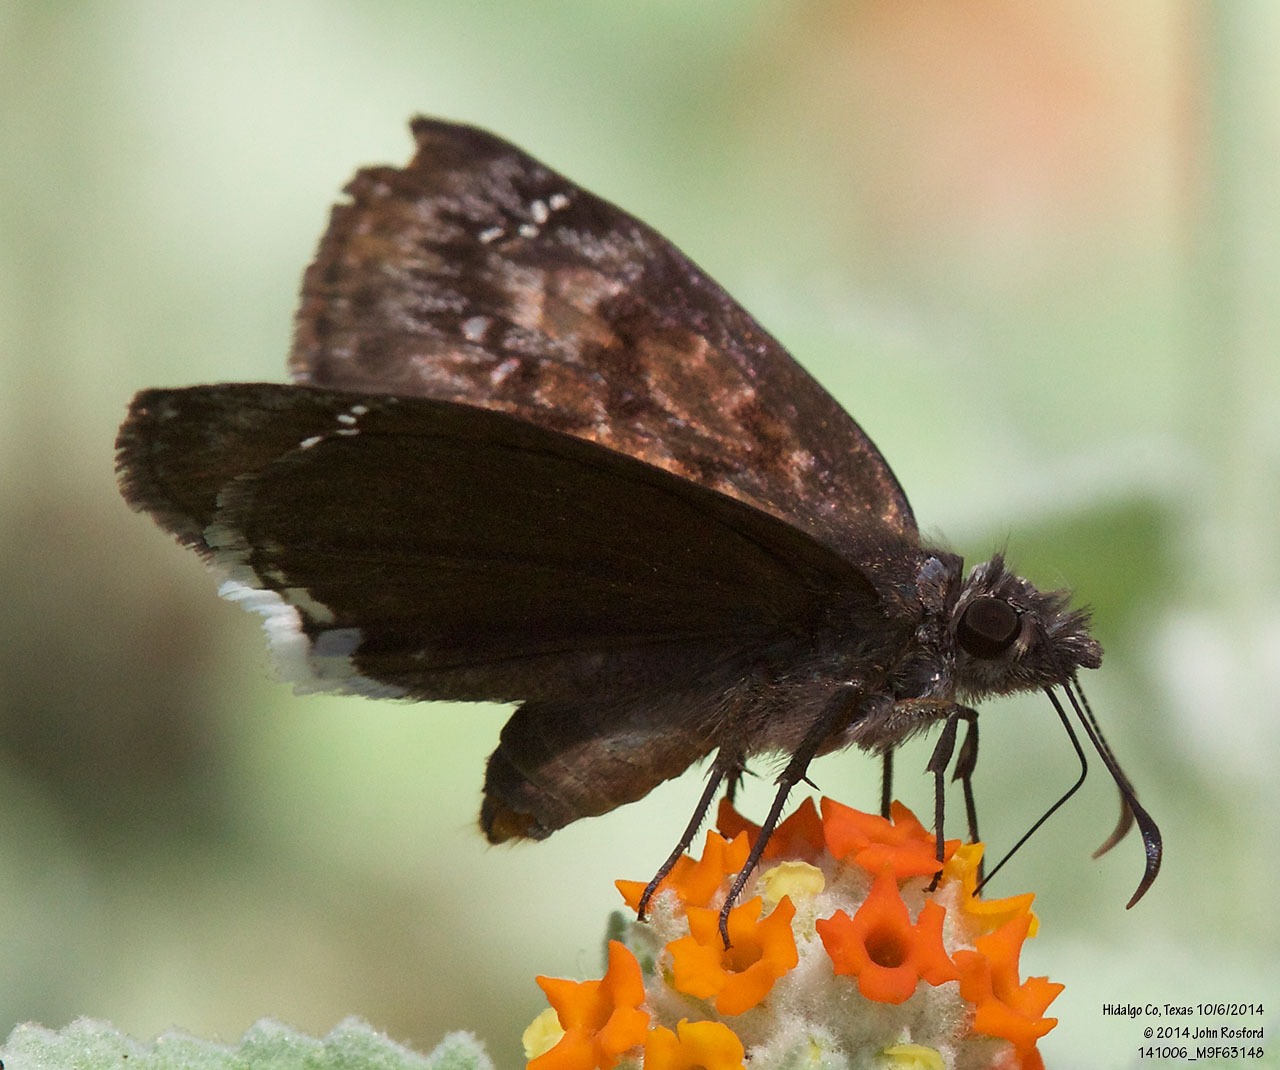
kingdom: Animalia
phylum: Arthropoda
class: Insecta
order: Lepidoptera
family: Hesperiidae
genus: Erynnis
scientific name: Erynnis tristis
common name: Mournful duskywing
